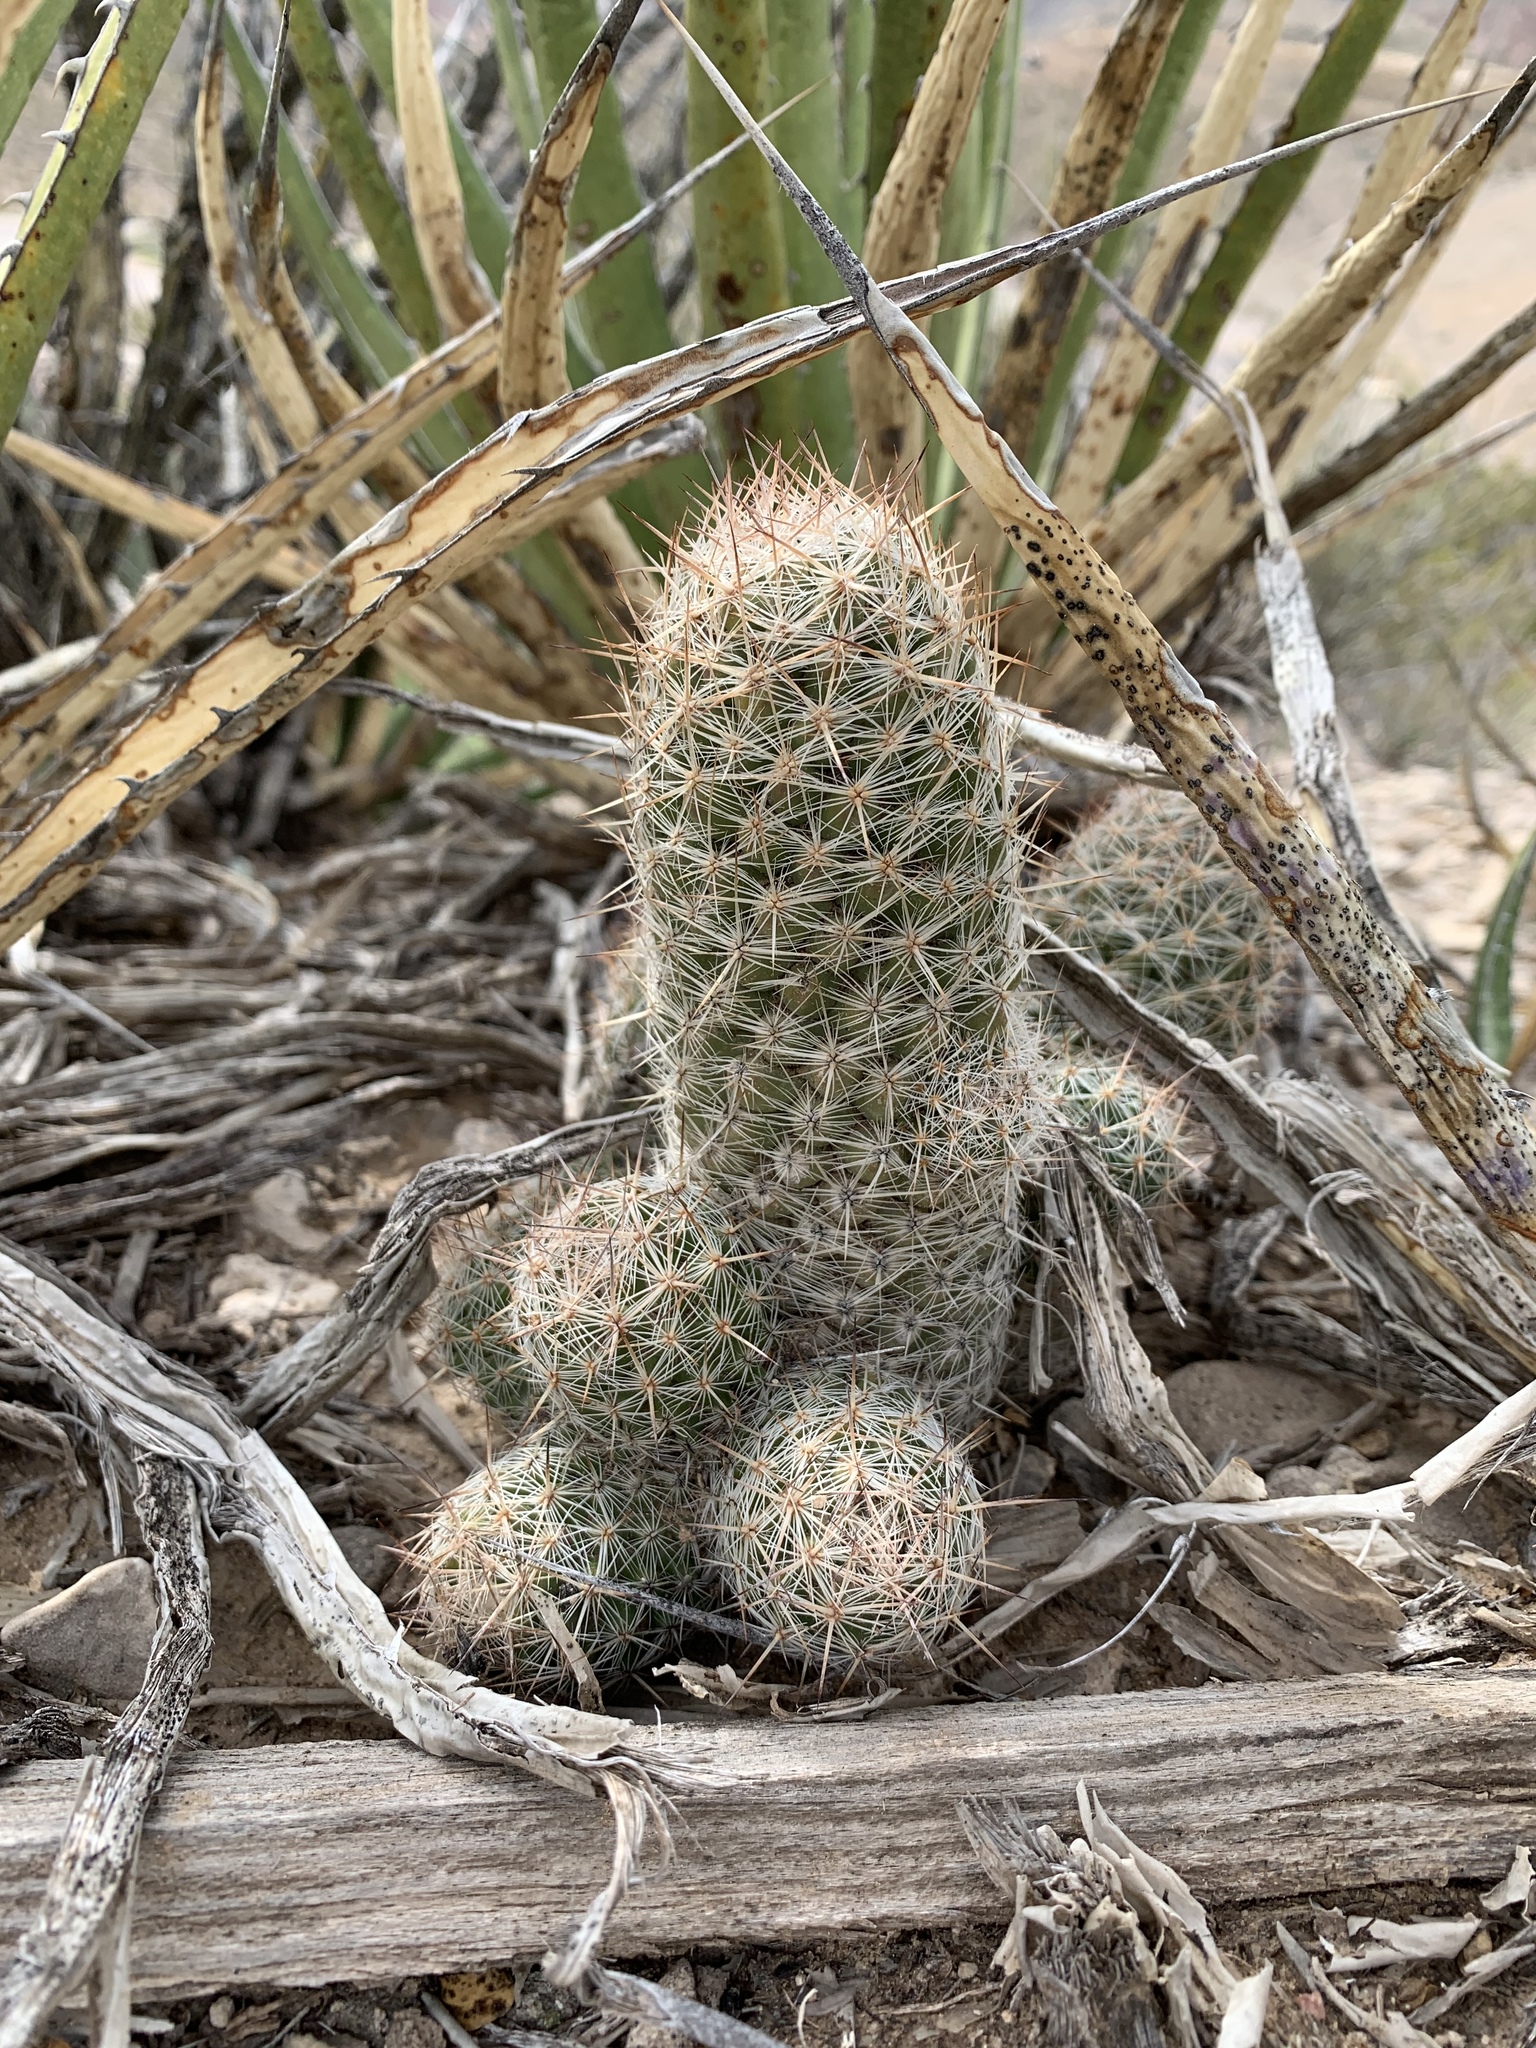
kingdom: Plantae
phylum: Tracheophyta
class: Magnoliopsida
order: Caryophyllales
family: Cactaceae
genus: Pelecyphora
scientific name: Pelecyphora tuberculosa
